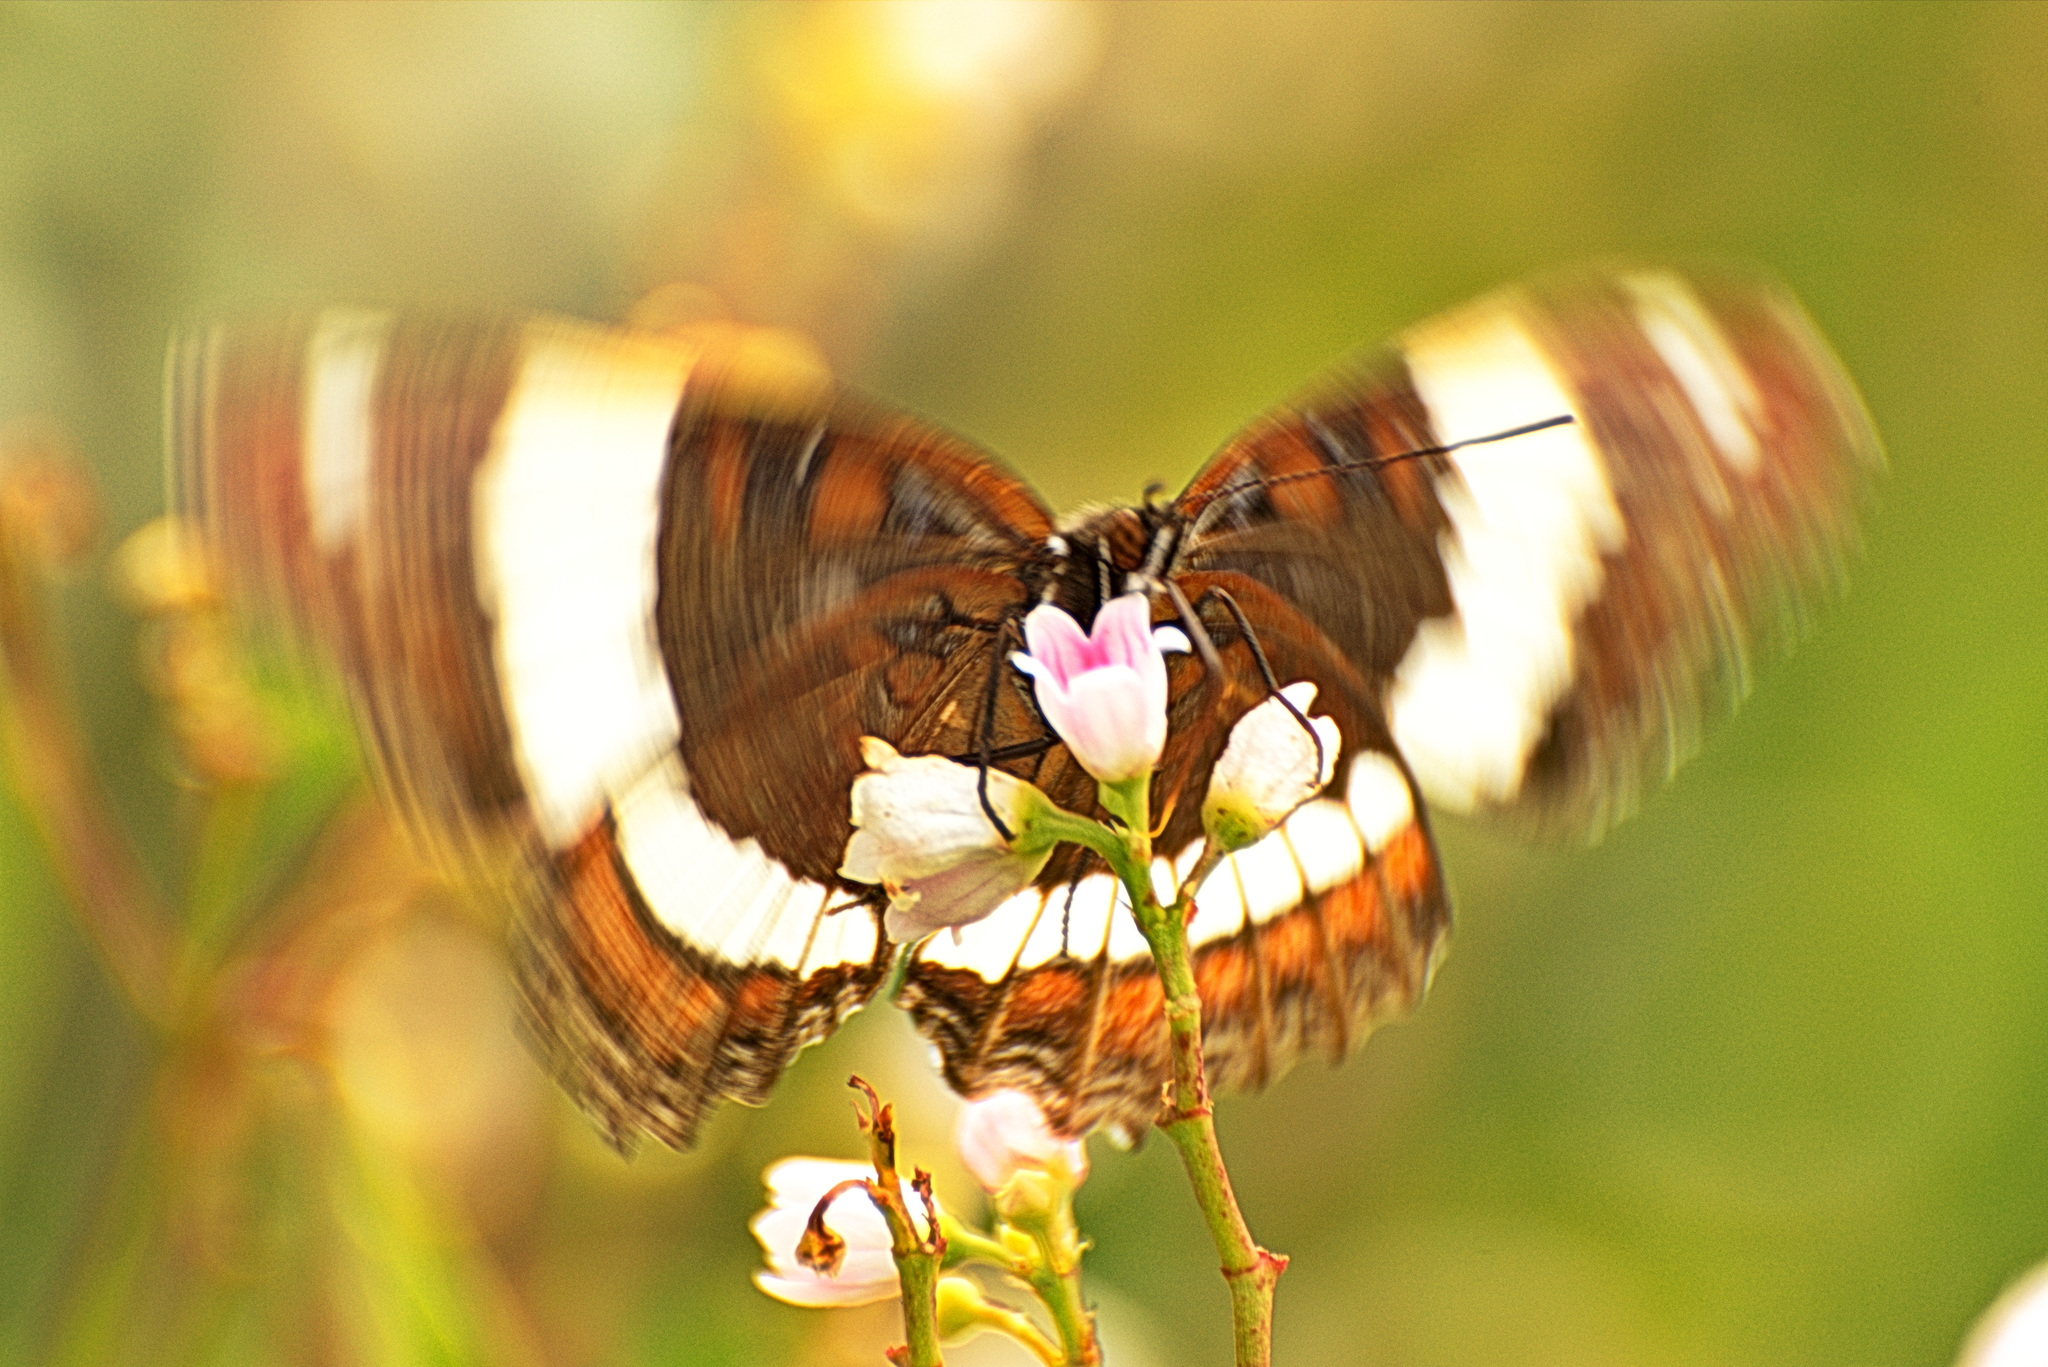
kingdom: Animalia
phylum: Arthropoda
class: Insecta
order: Lepidoptera
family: Nymphalidae
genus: Limenitis
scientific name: Limenitis arthemis
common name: Red-spotted admiral
